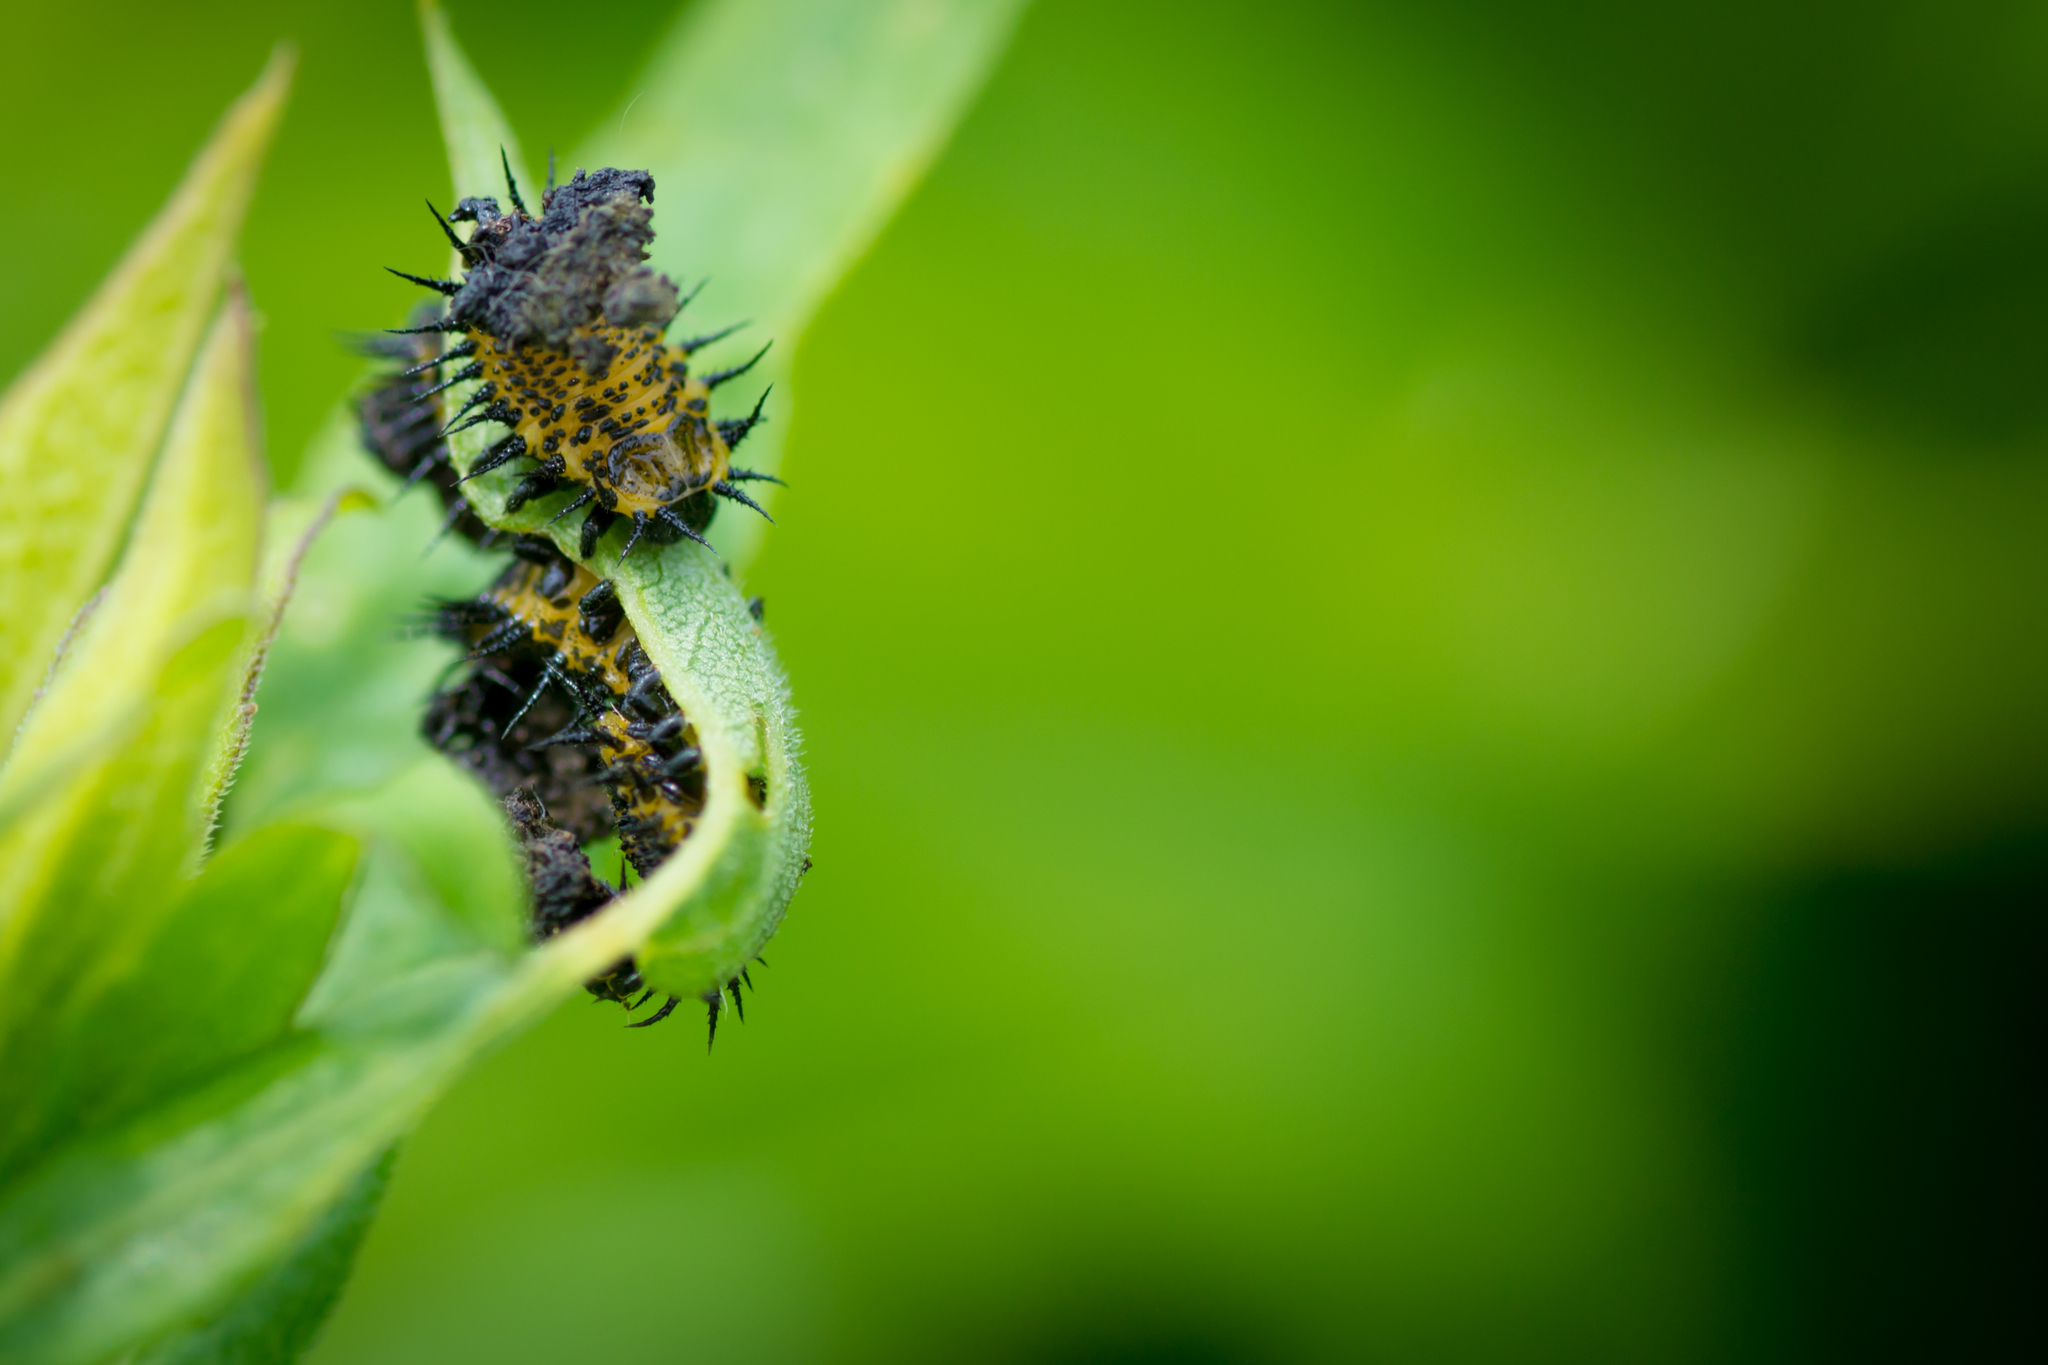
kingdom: Animalia
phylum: Arthropoda
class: Insecta
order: Coleoptera
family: Chrysomelidae
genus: Chelymorpha
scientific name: Chelymorpha cassidea
